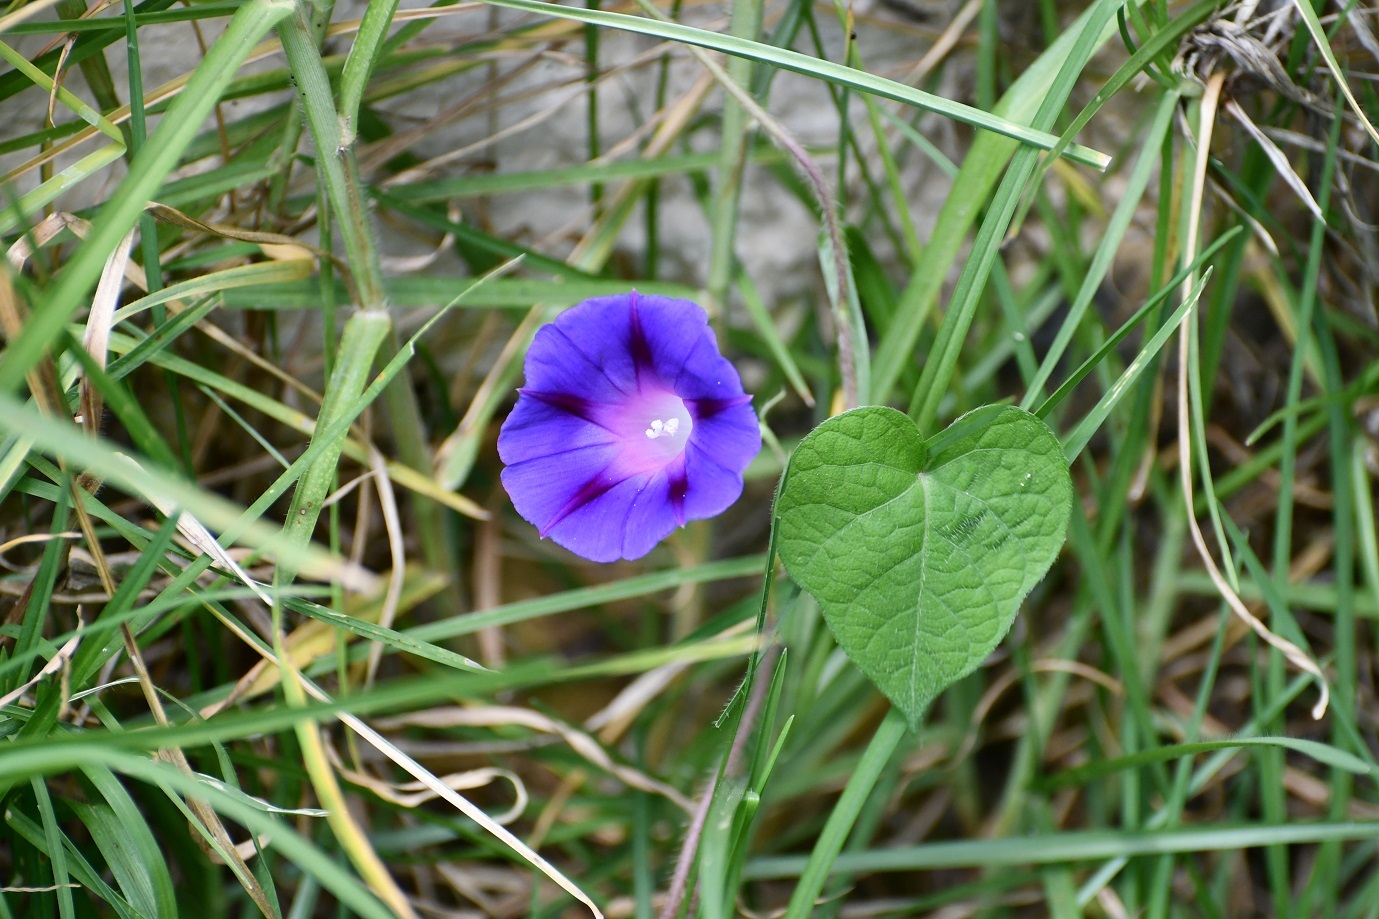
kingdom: Plantae
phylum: Tracheophyta
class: Magnoliopsida
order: Solanales
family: Convolvulaceae
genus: Ipomoea
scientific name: Ipomoea purpurea
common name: Common morning-glory
